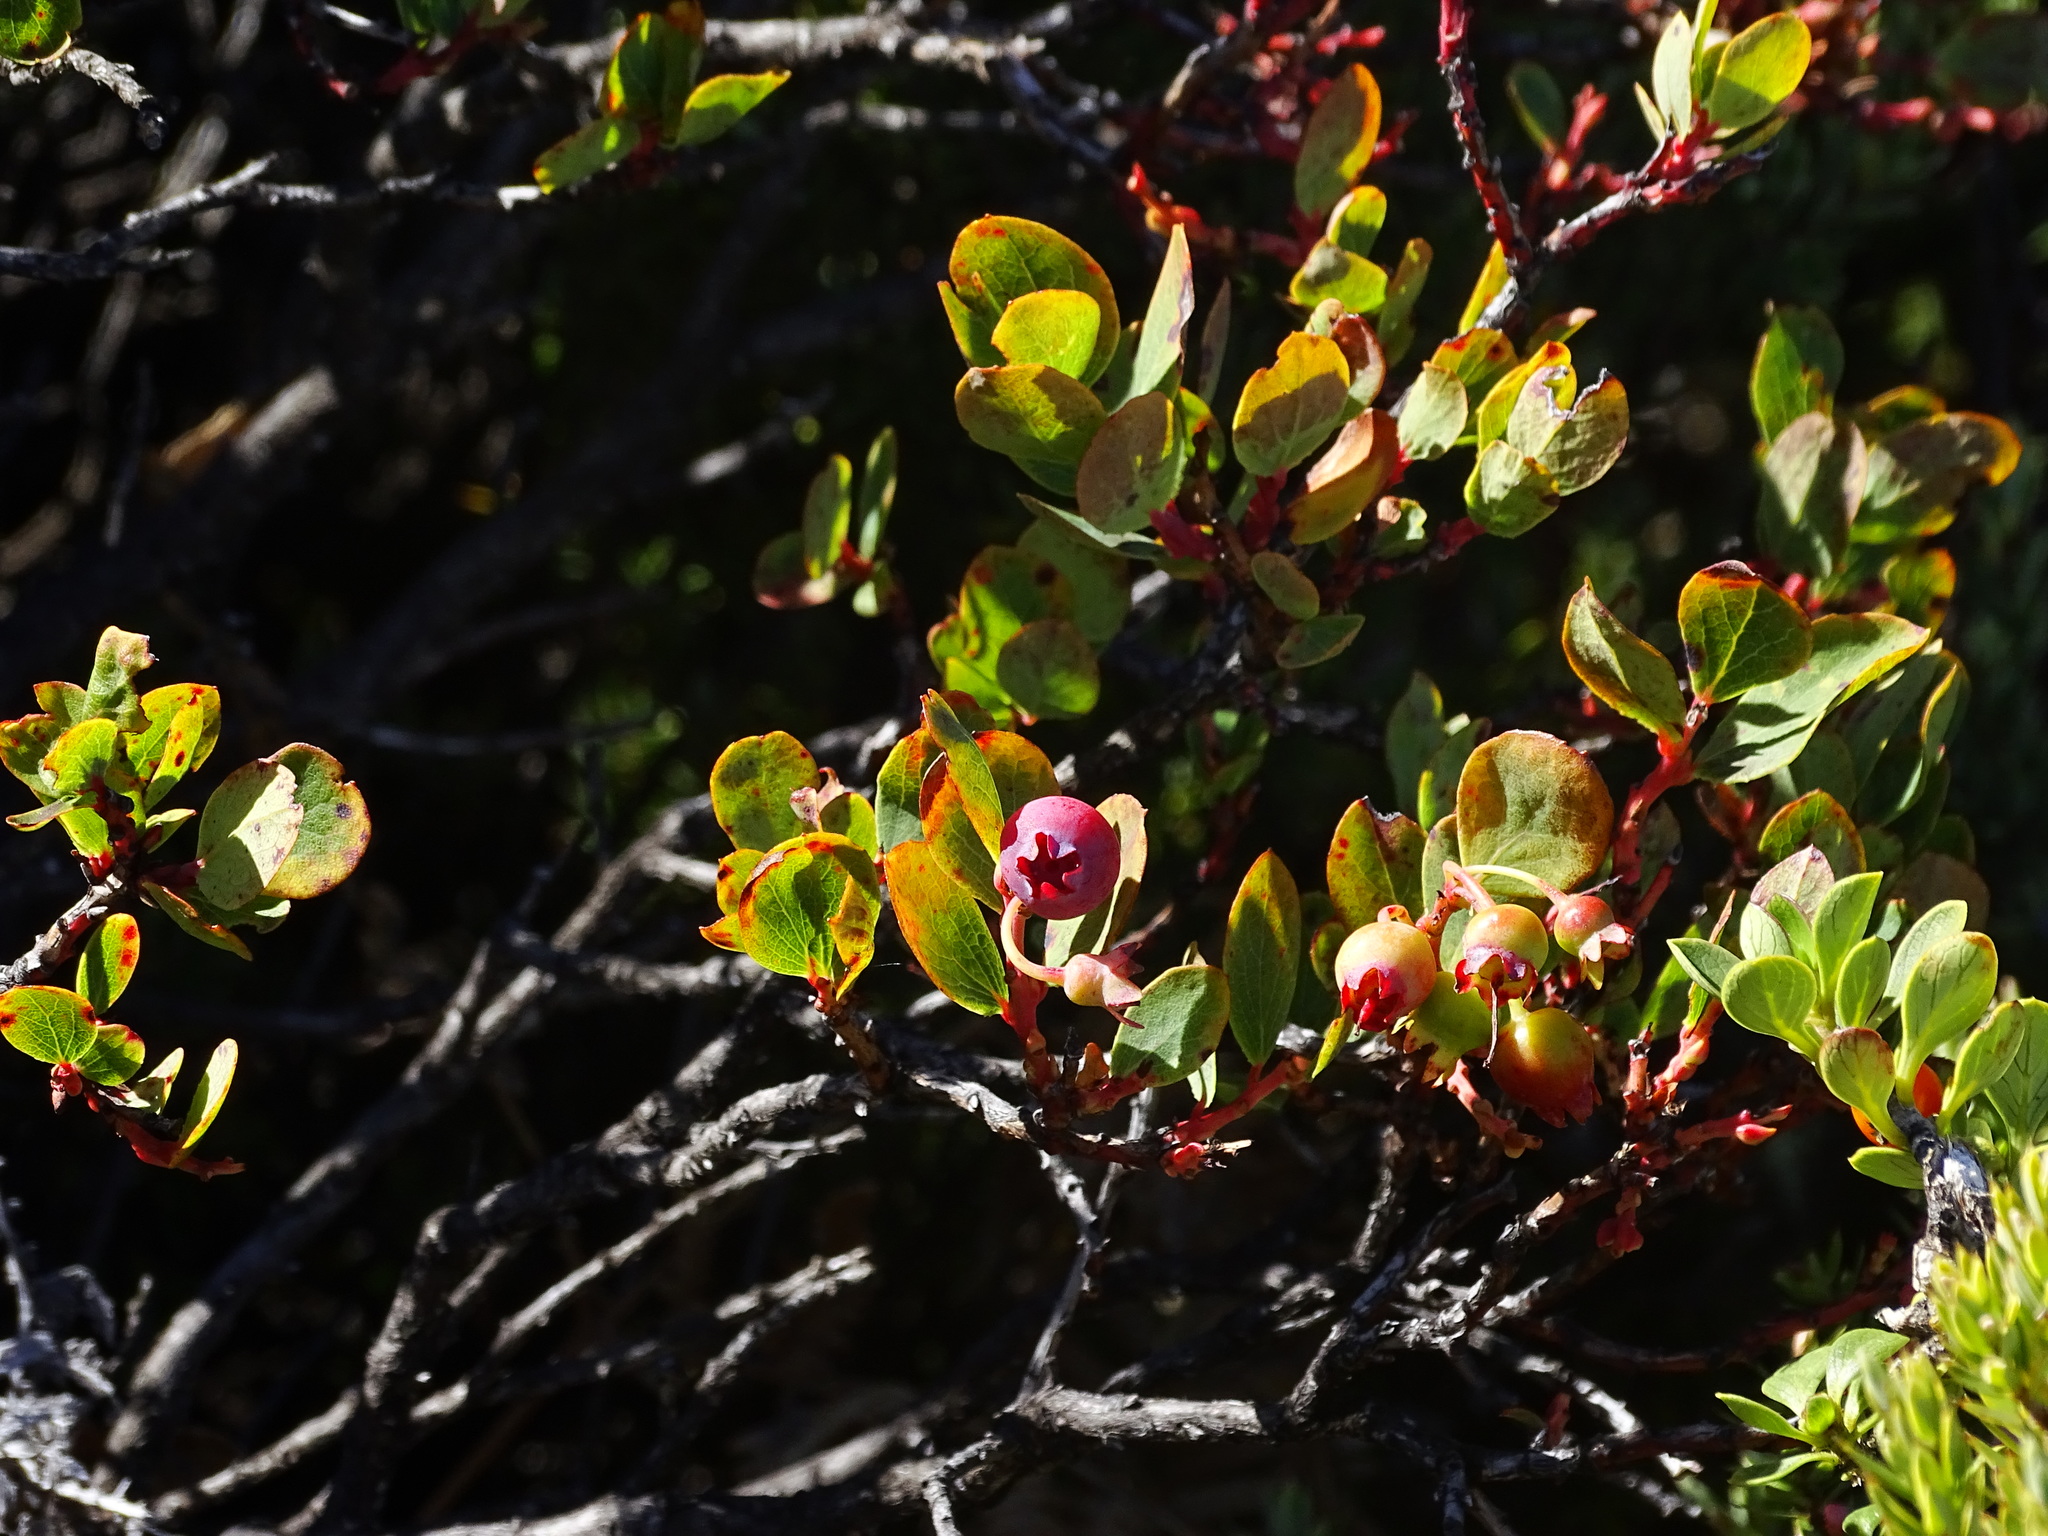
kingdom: Plantae
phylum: Tracheophyta
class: Magnoliopsida
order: Ericales
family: Ericaceae
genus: Vaccinium
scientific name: Vaccinium reticulatum
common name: Ohelo
